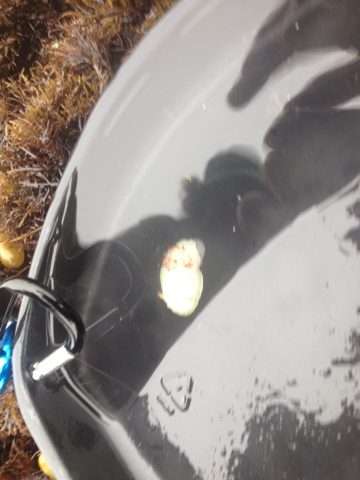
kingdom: Animalia
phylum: Mollusca
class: Gastropoda
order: Nudibranchia
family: Onchidorididae
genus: Acanthodoris
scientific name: Acanthodoris nanaimoensis
